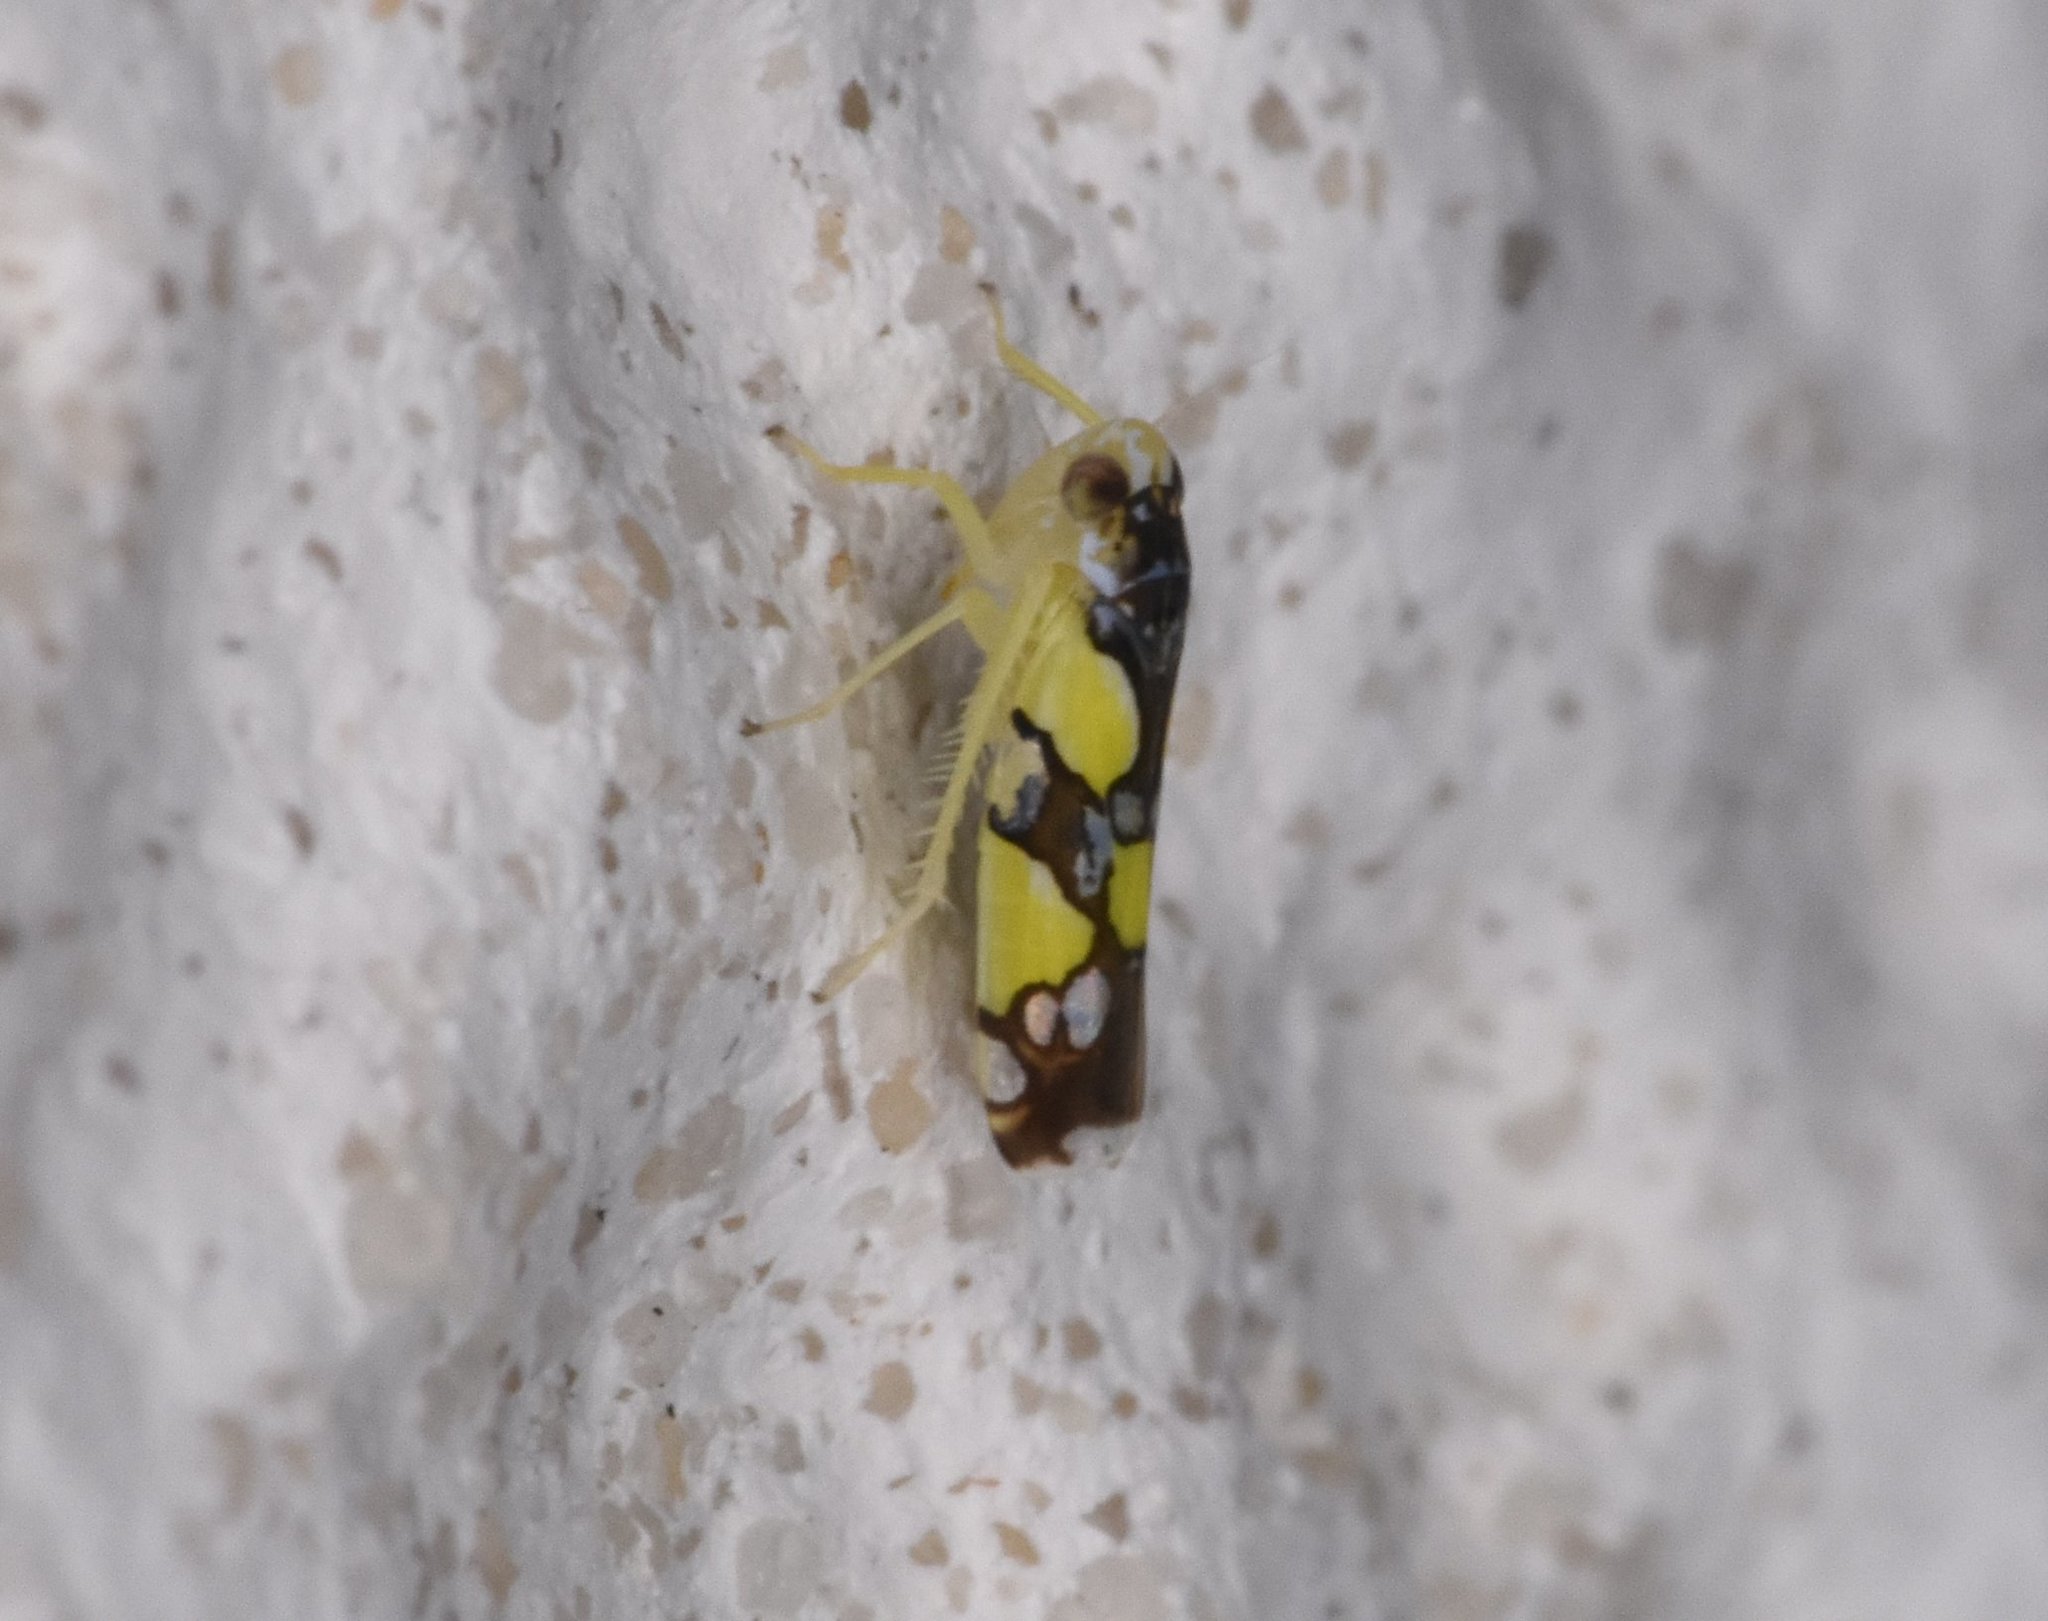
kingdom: Animalia
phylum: Arthropoda
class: Insecta
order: Hemiptera
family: Cicadellidae
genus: Protalebrella
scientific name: Protalebrella brasiliensis
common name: Brasilian leafhopper
